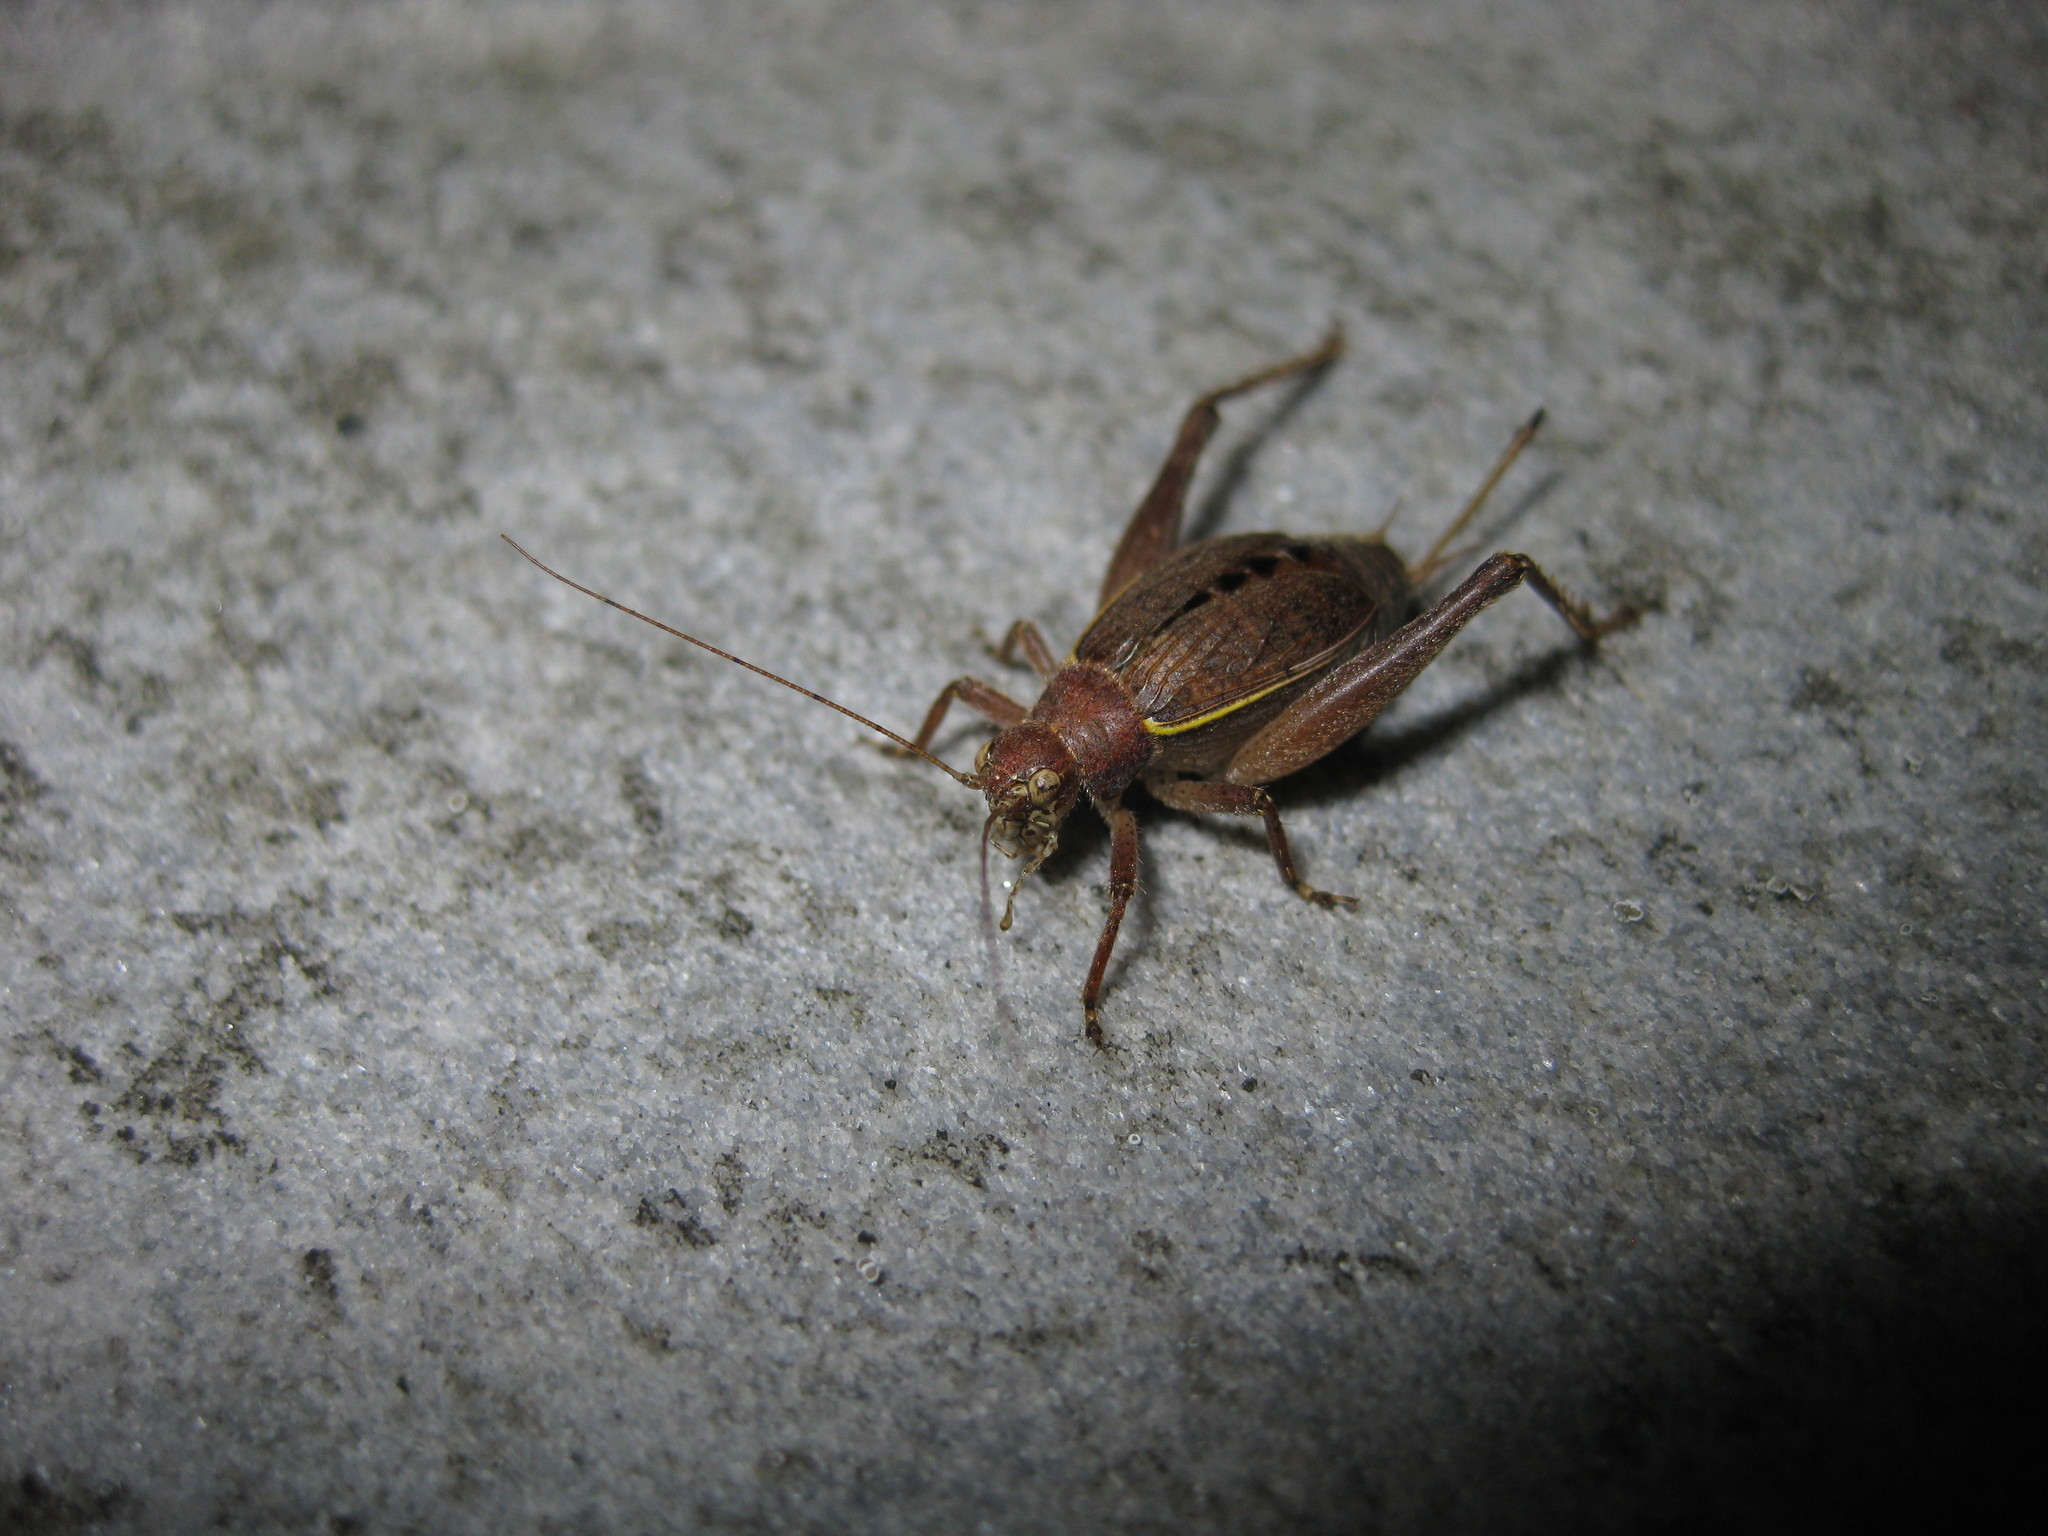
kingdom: Animalia
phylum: Arthropoda
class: Insecta
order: Orthoptera
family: Gryllidae
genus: Hapithus
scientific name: Hapithus agitator
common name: Restless bush cricket
